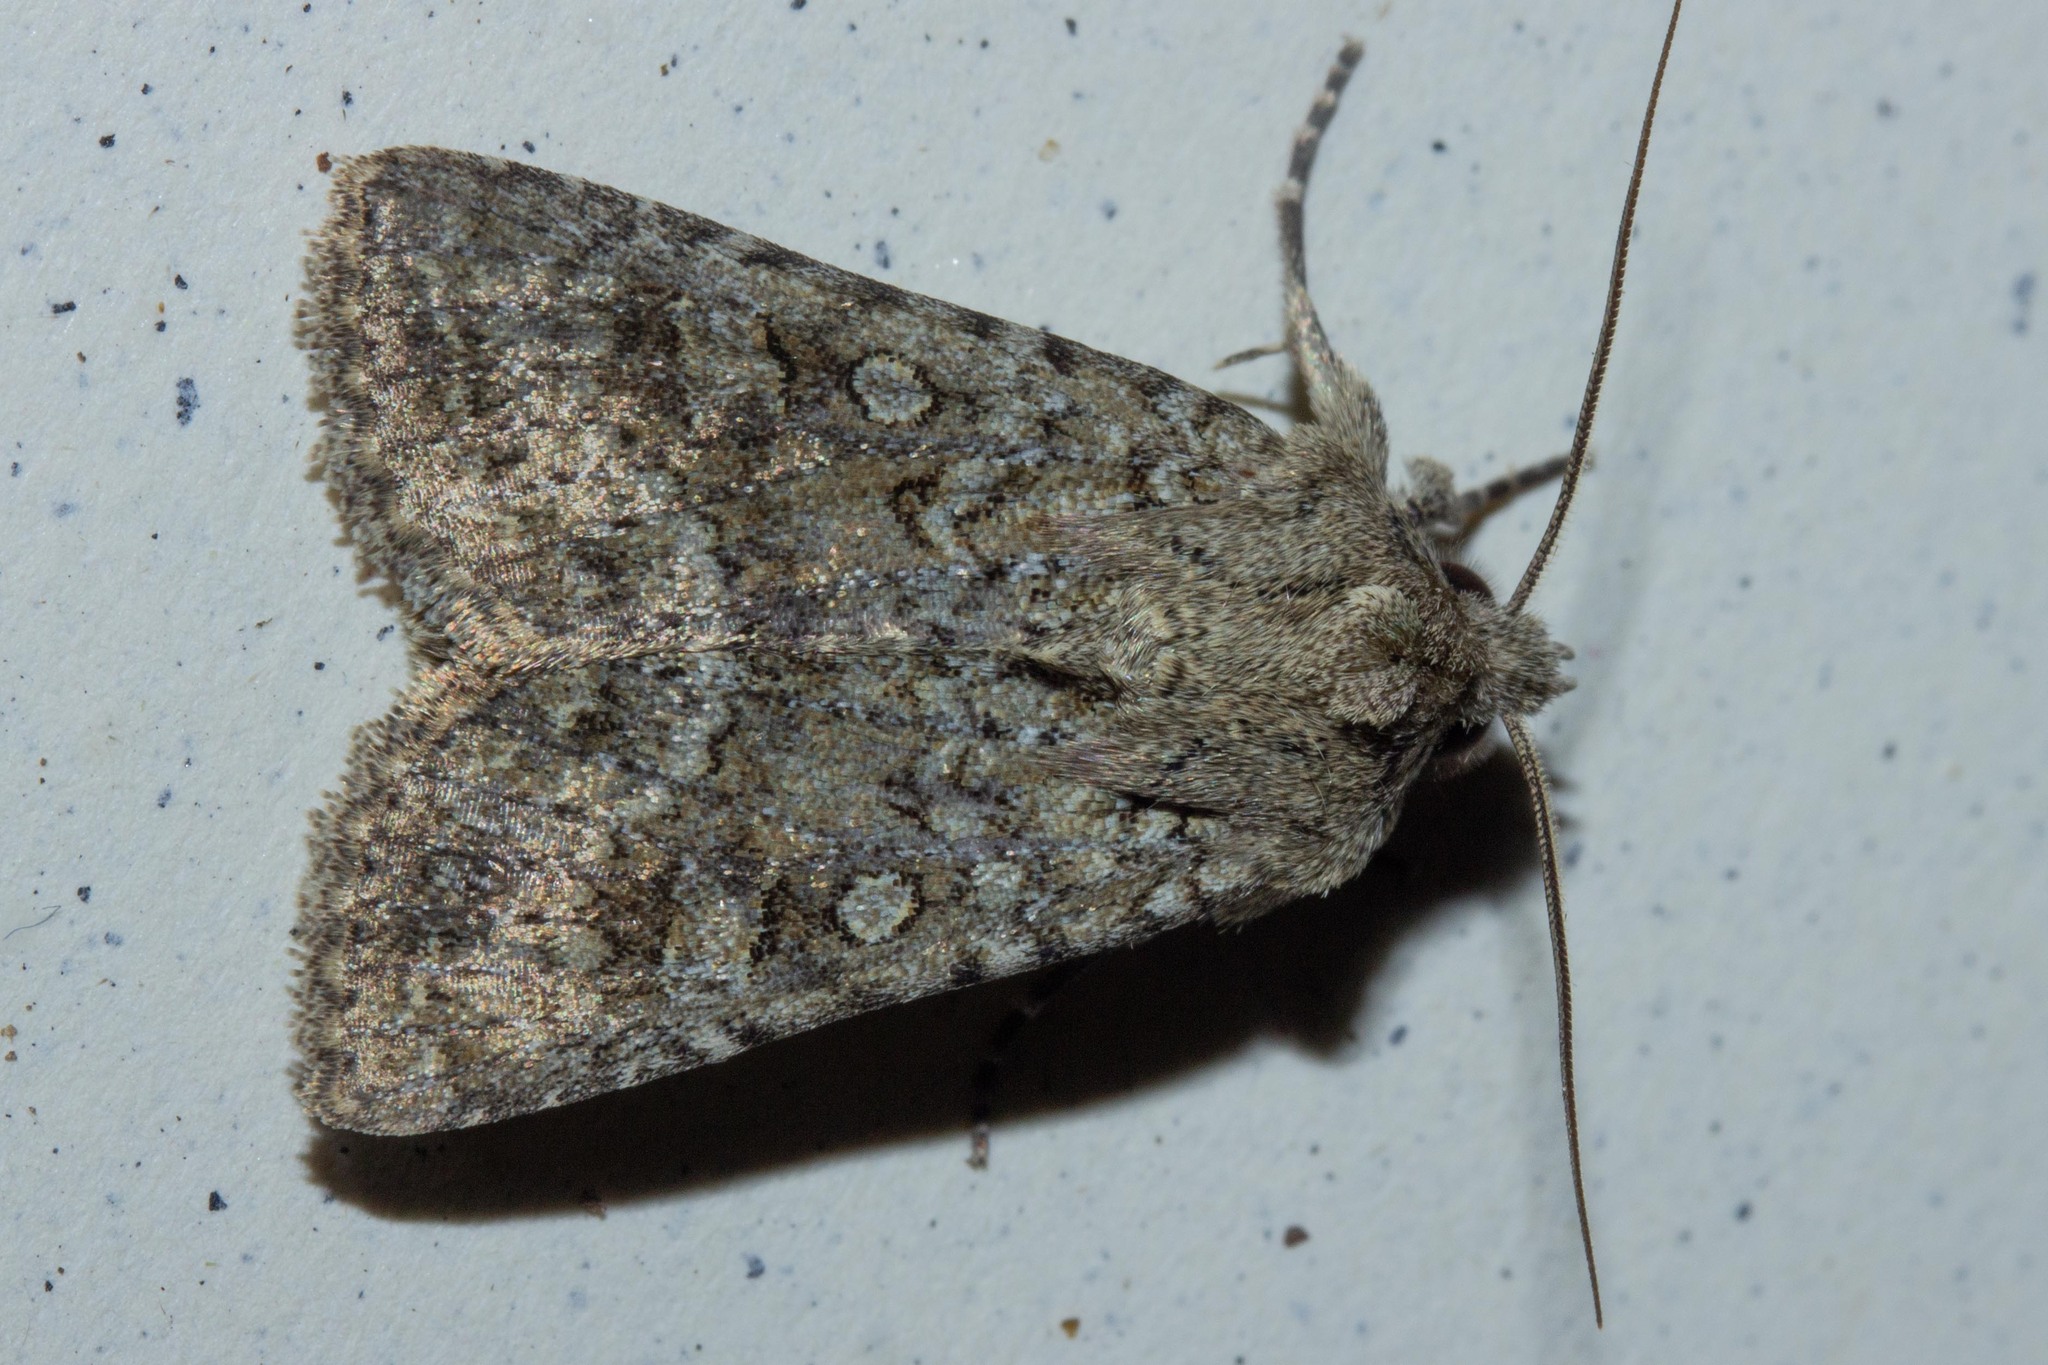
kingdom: Animalia
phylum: Arthropoda
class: Insecta
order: Lepidoptera
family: Noctuidae
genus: Ichneutica
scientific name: Ichneutica barbara
